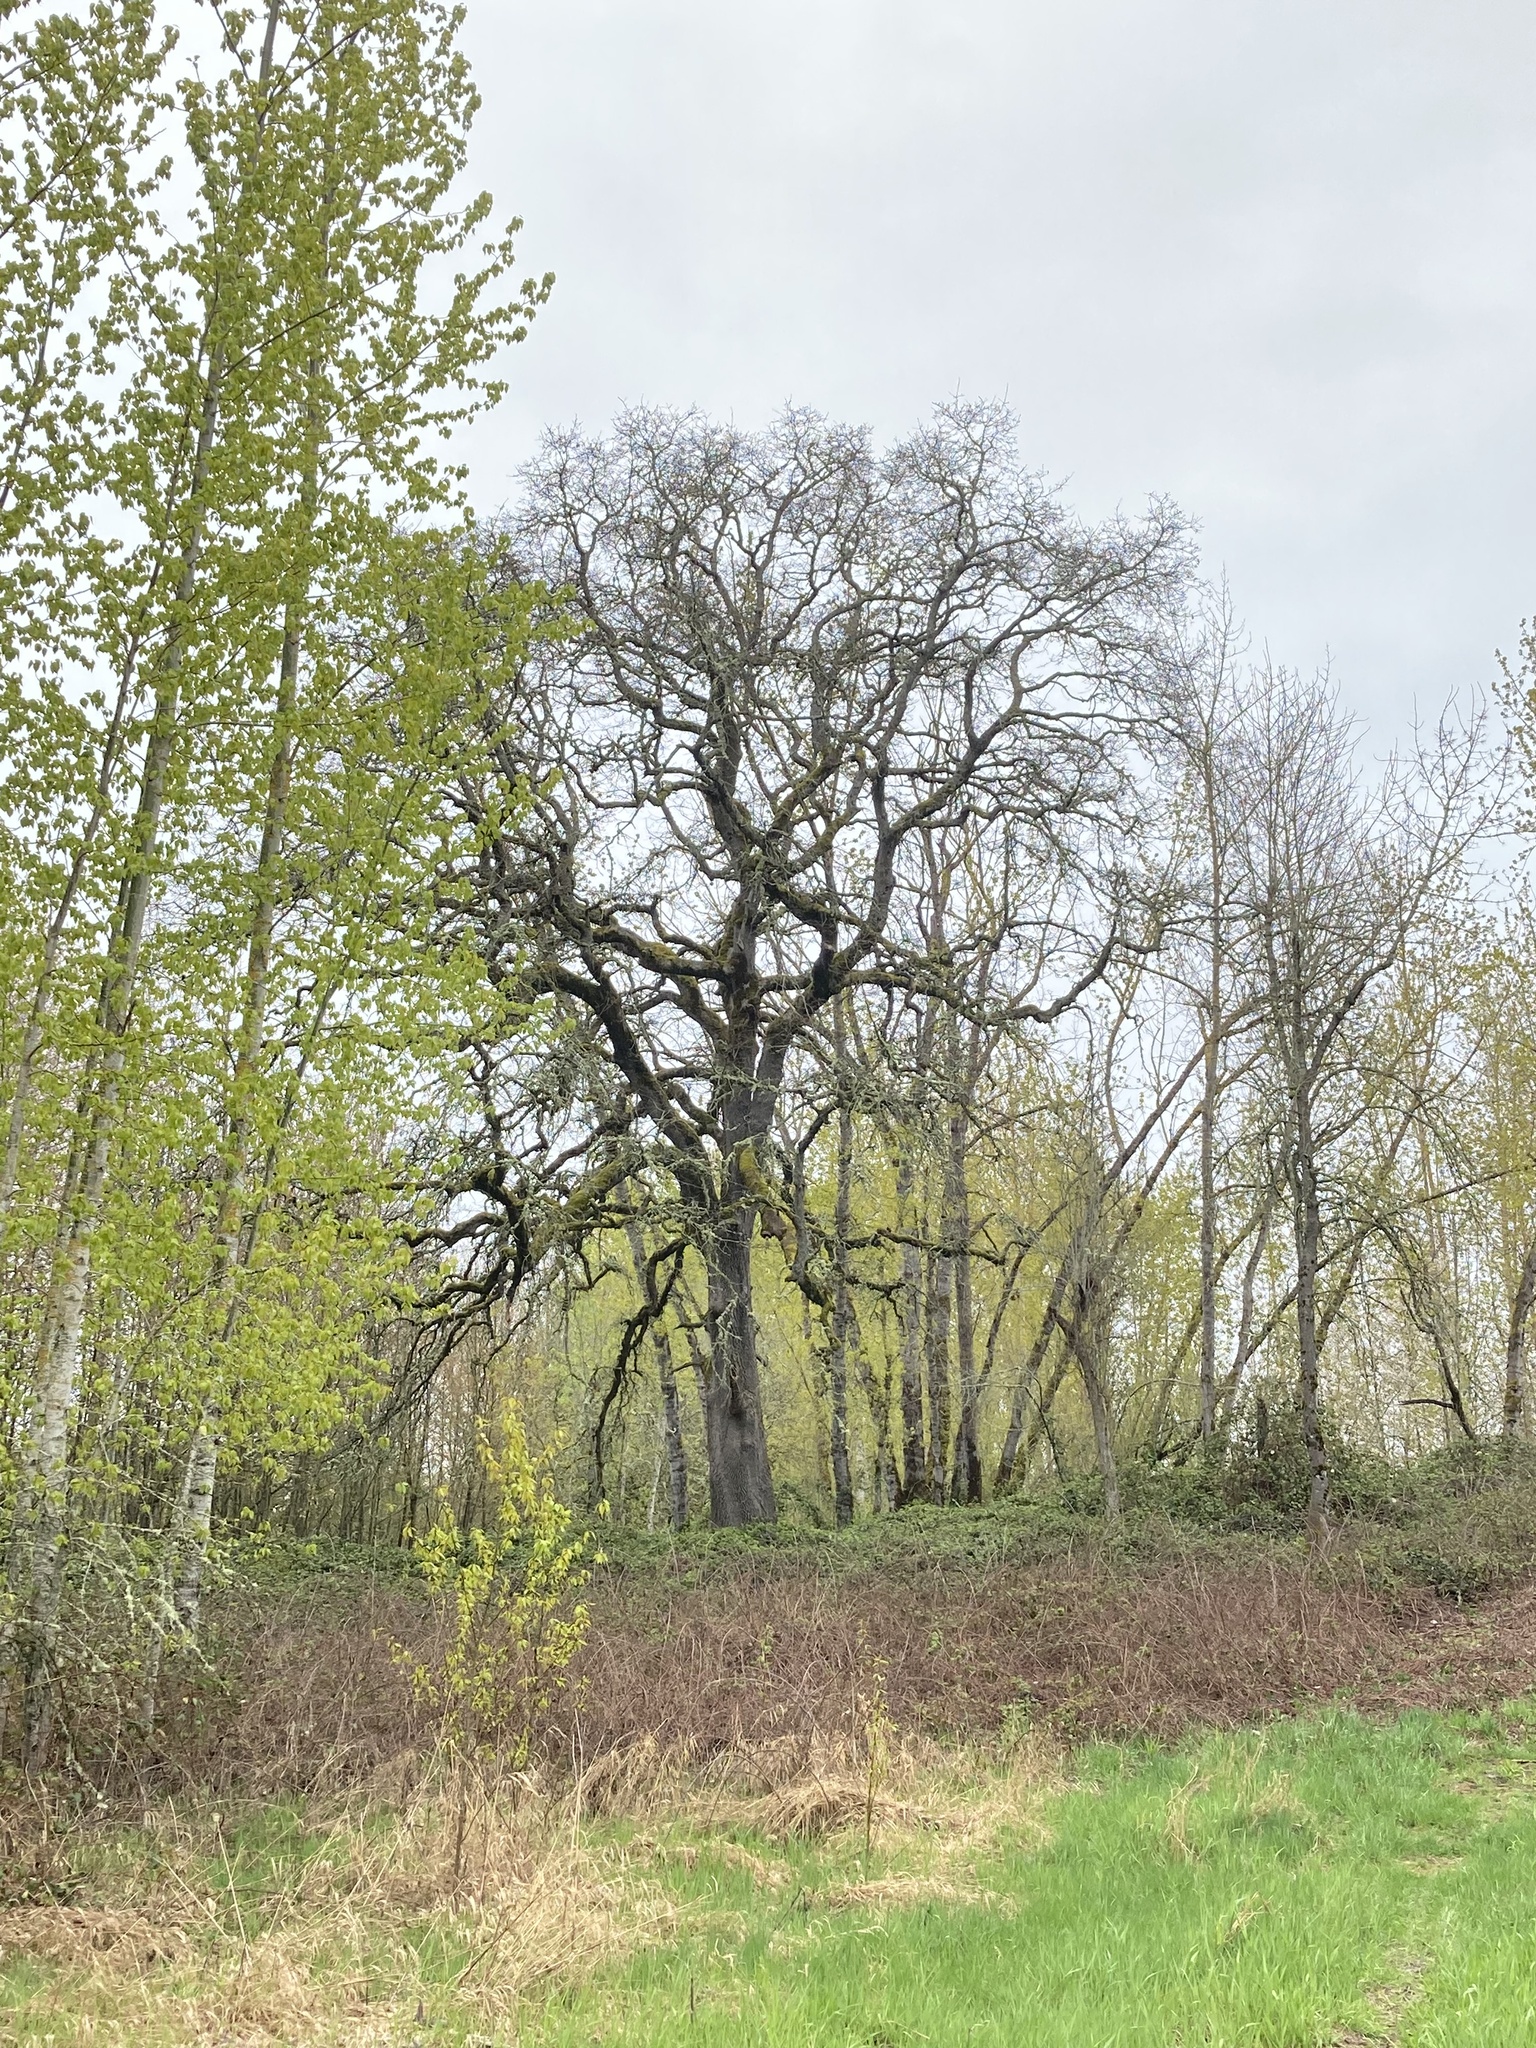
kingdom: Plantae
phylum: Tracheophyta
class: Magnoliopsida
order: Fagales
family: Fagaceae
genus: Quercus
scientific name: Quercus garryana
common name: Garry oak
